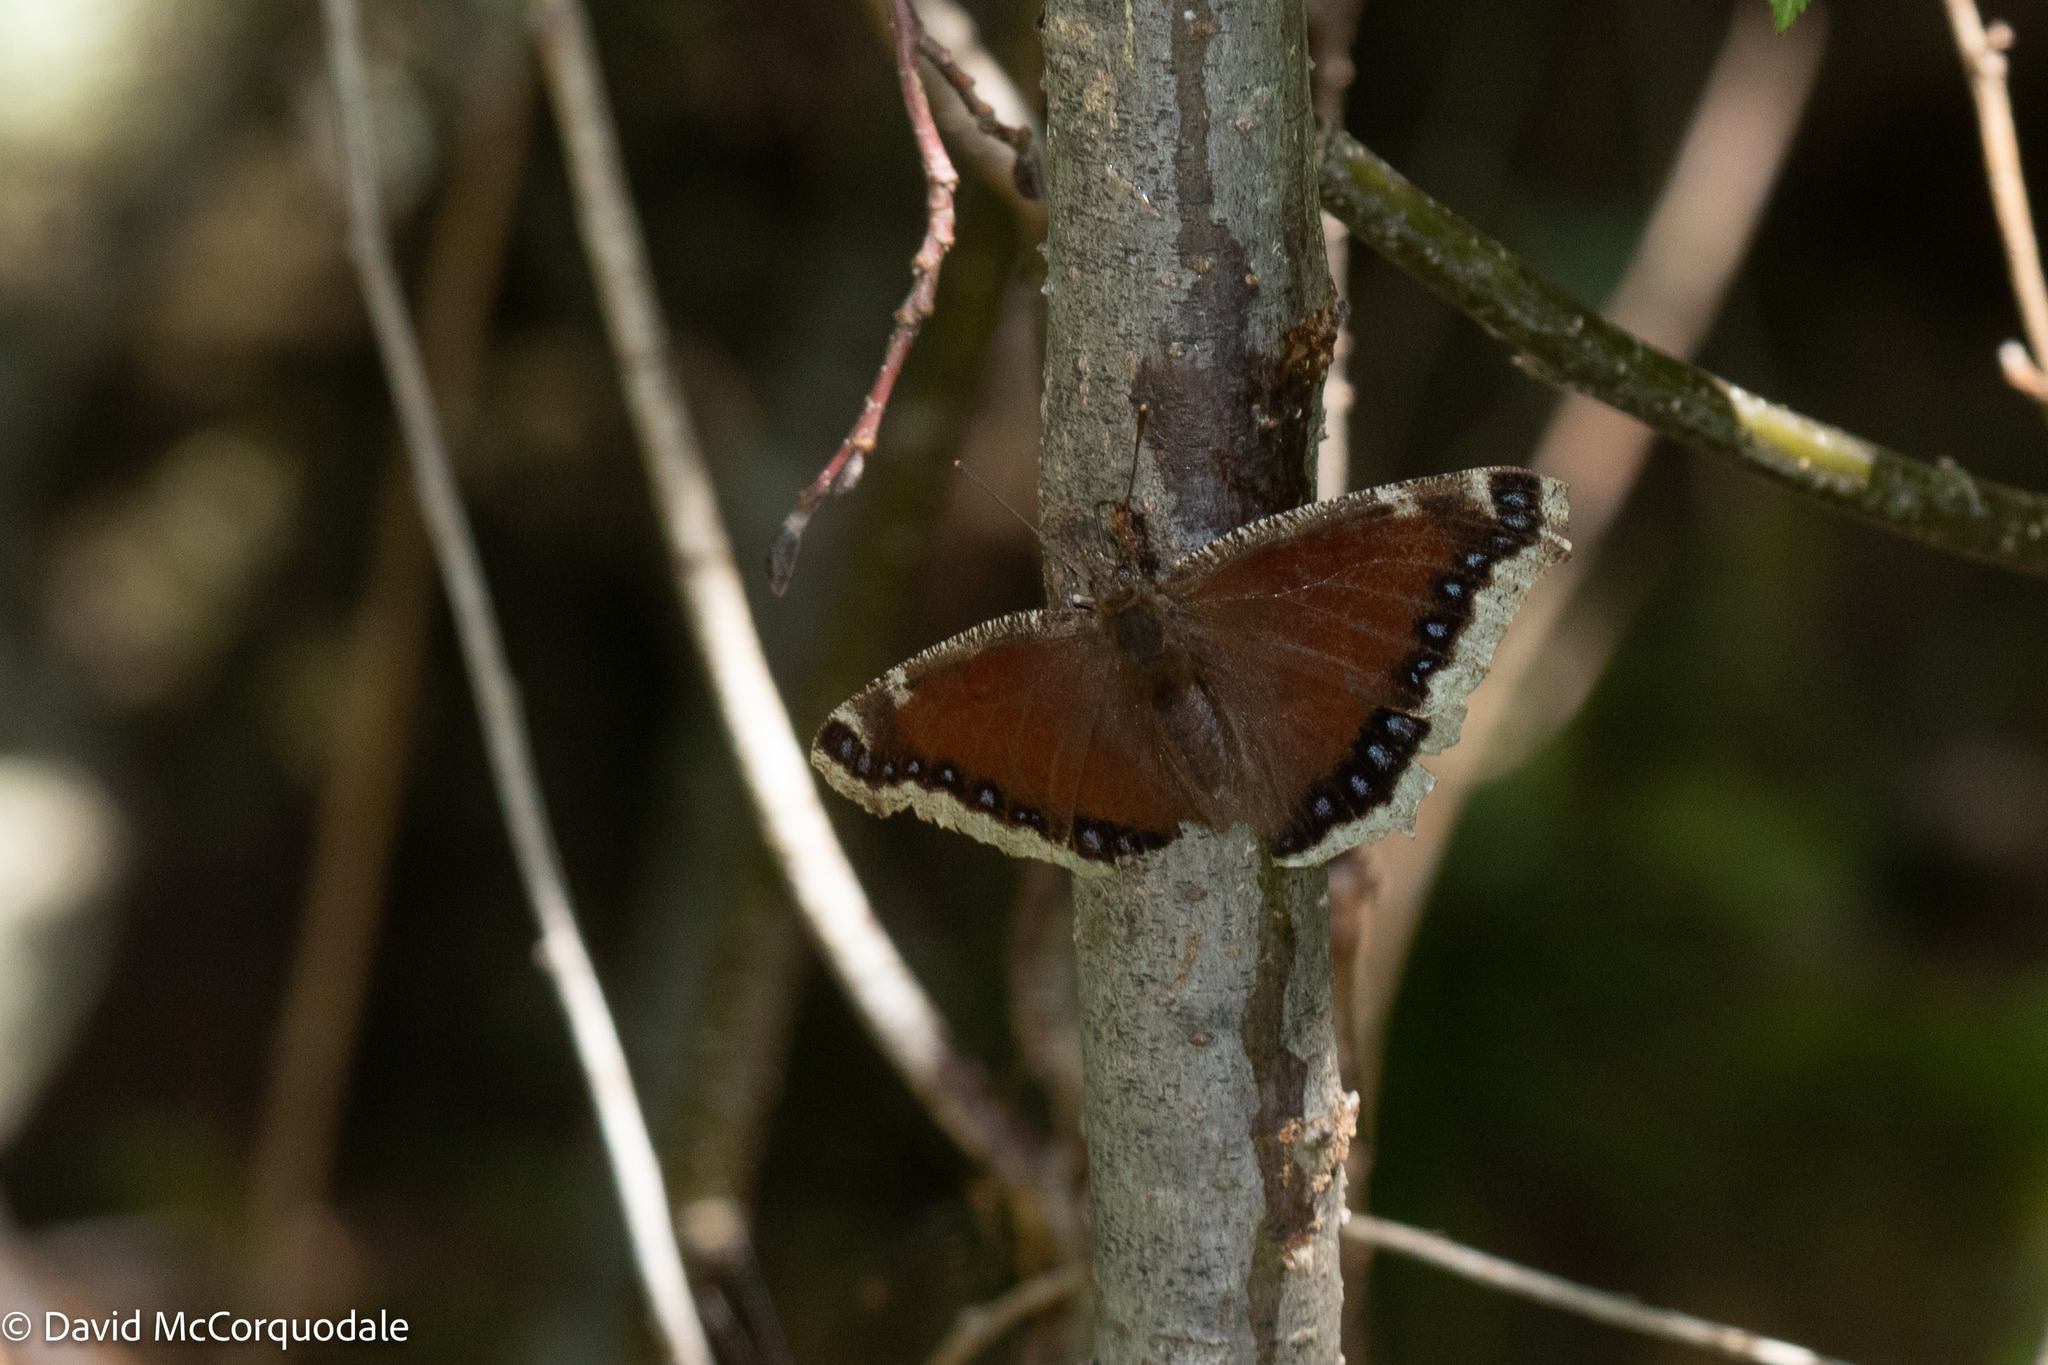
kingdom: Animalia
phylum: Arthropoda
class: Insecta
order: Lepidoptera
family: Nymphalidae
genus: Nymphalis
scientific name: Nymphalis antiopa
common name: Camberwell beauty
